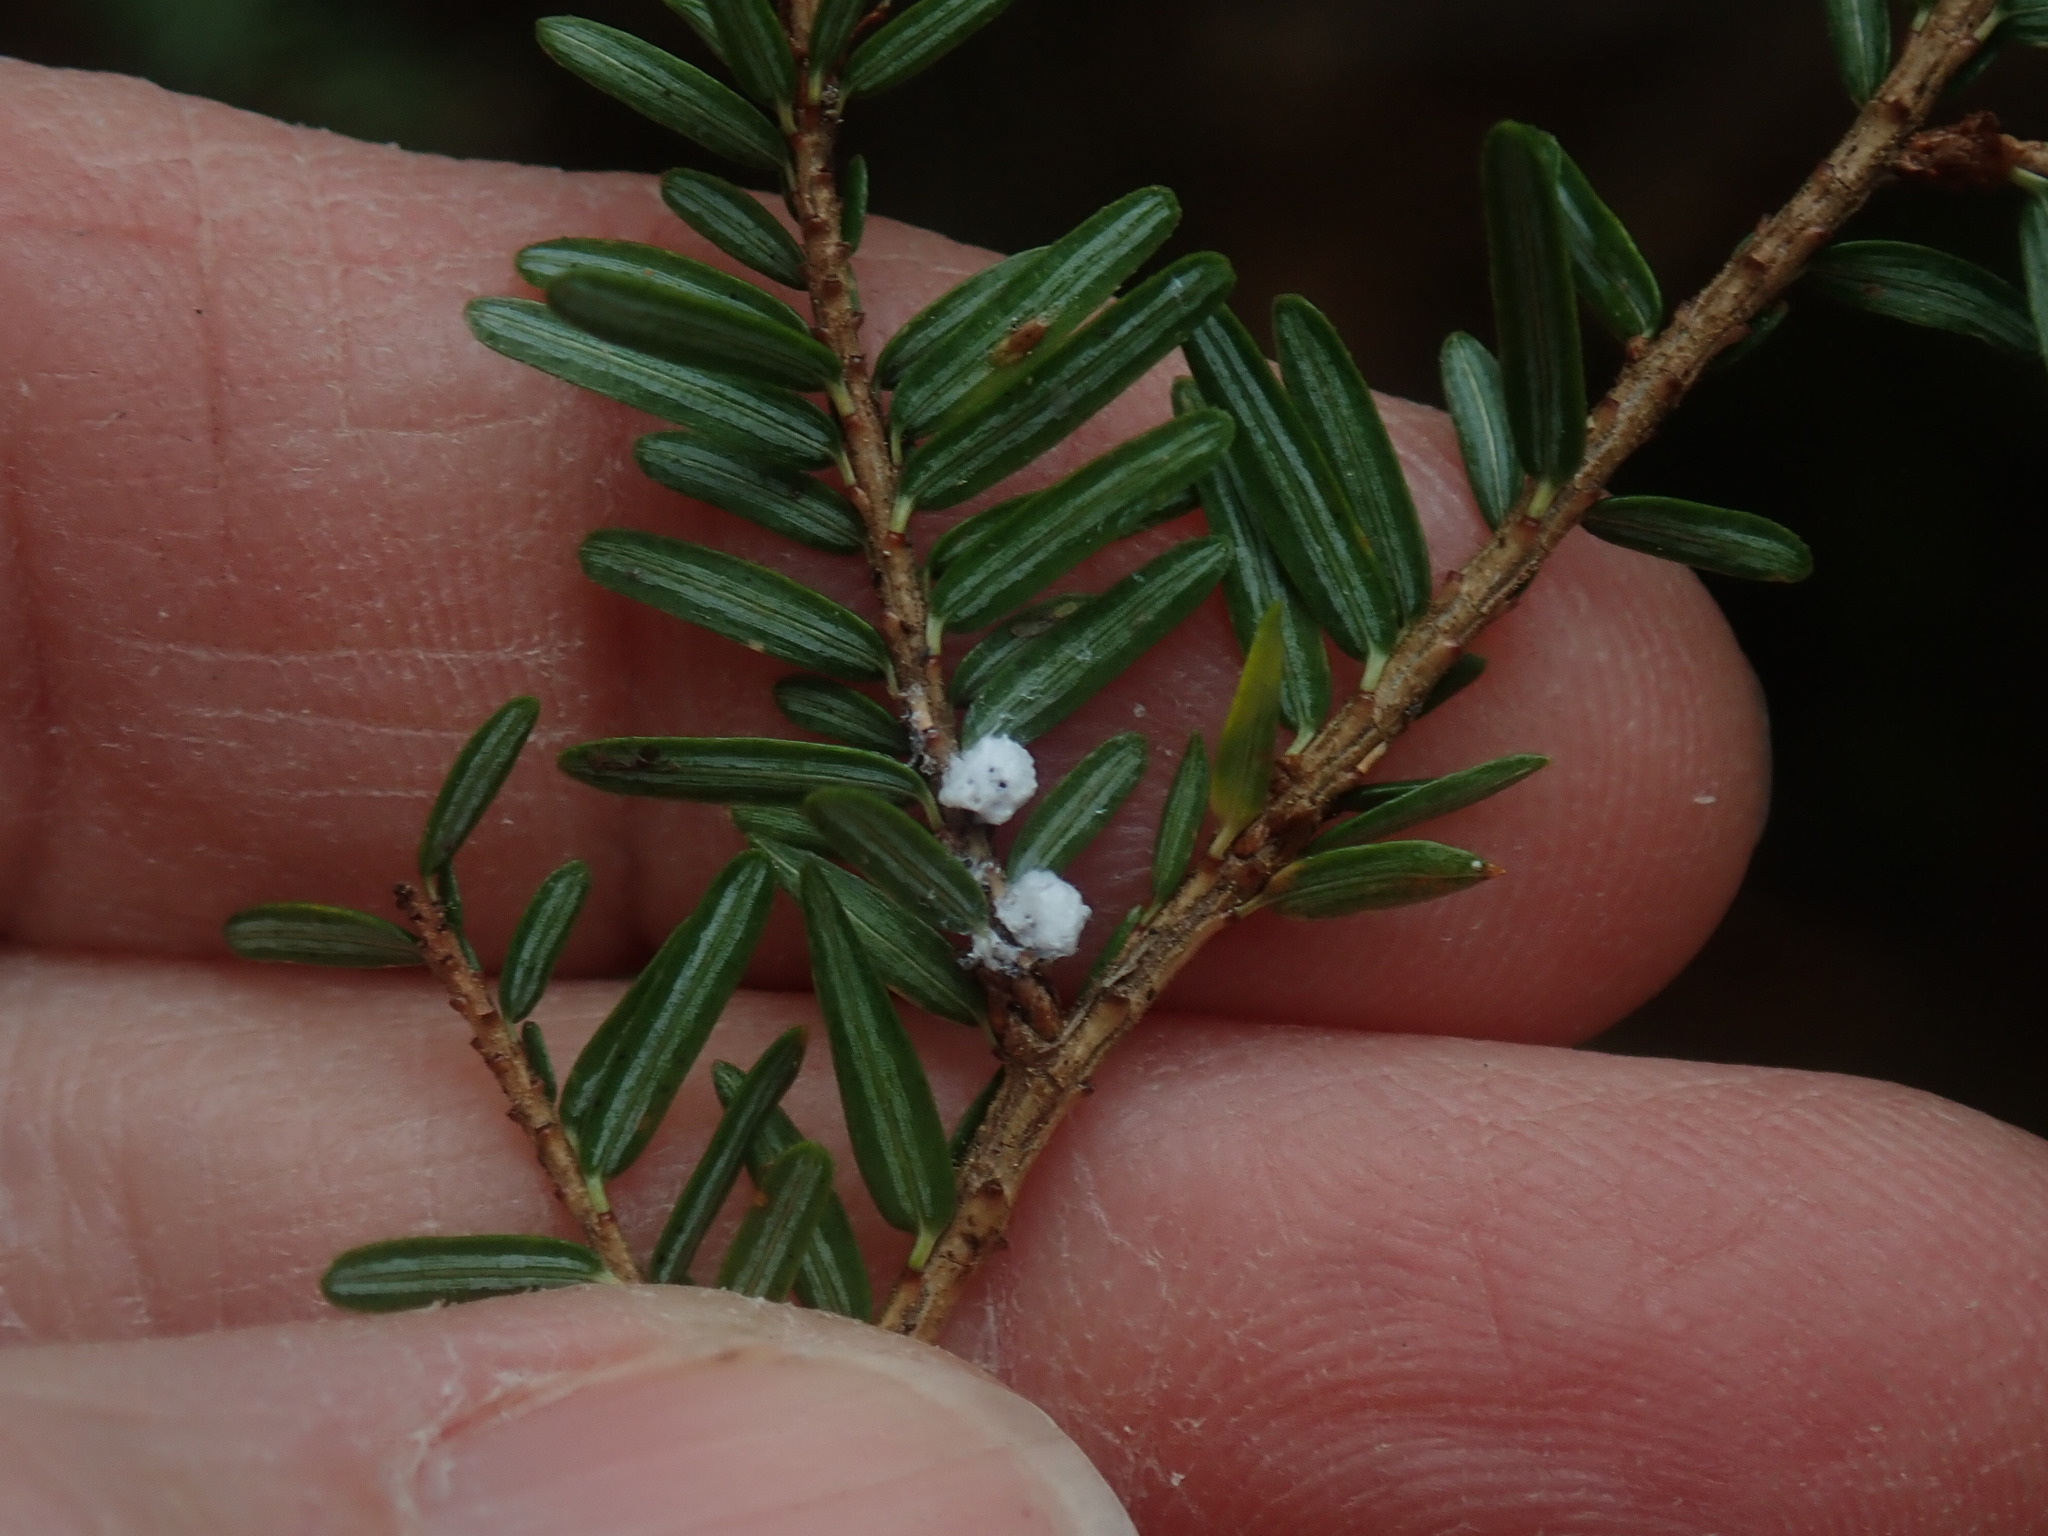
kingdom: Animalia
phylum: Arthropoda
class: Insecta
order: Hemiptera
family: Adelgidae
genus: Adelges
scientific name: Adelges tsugae
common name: Hemlock woolly adelgid
